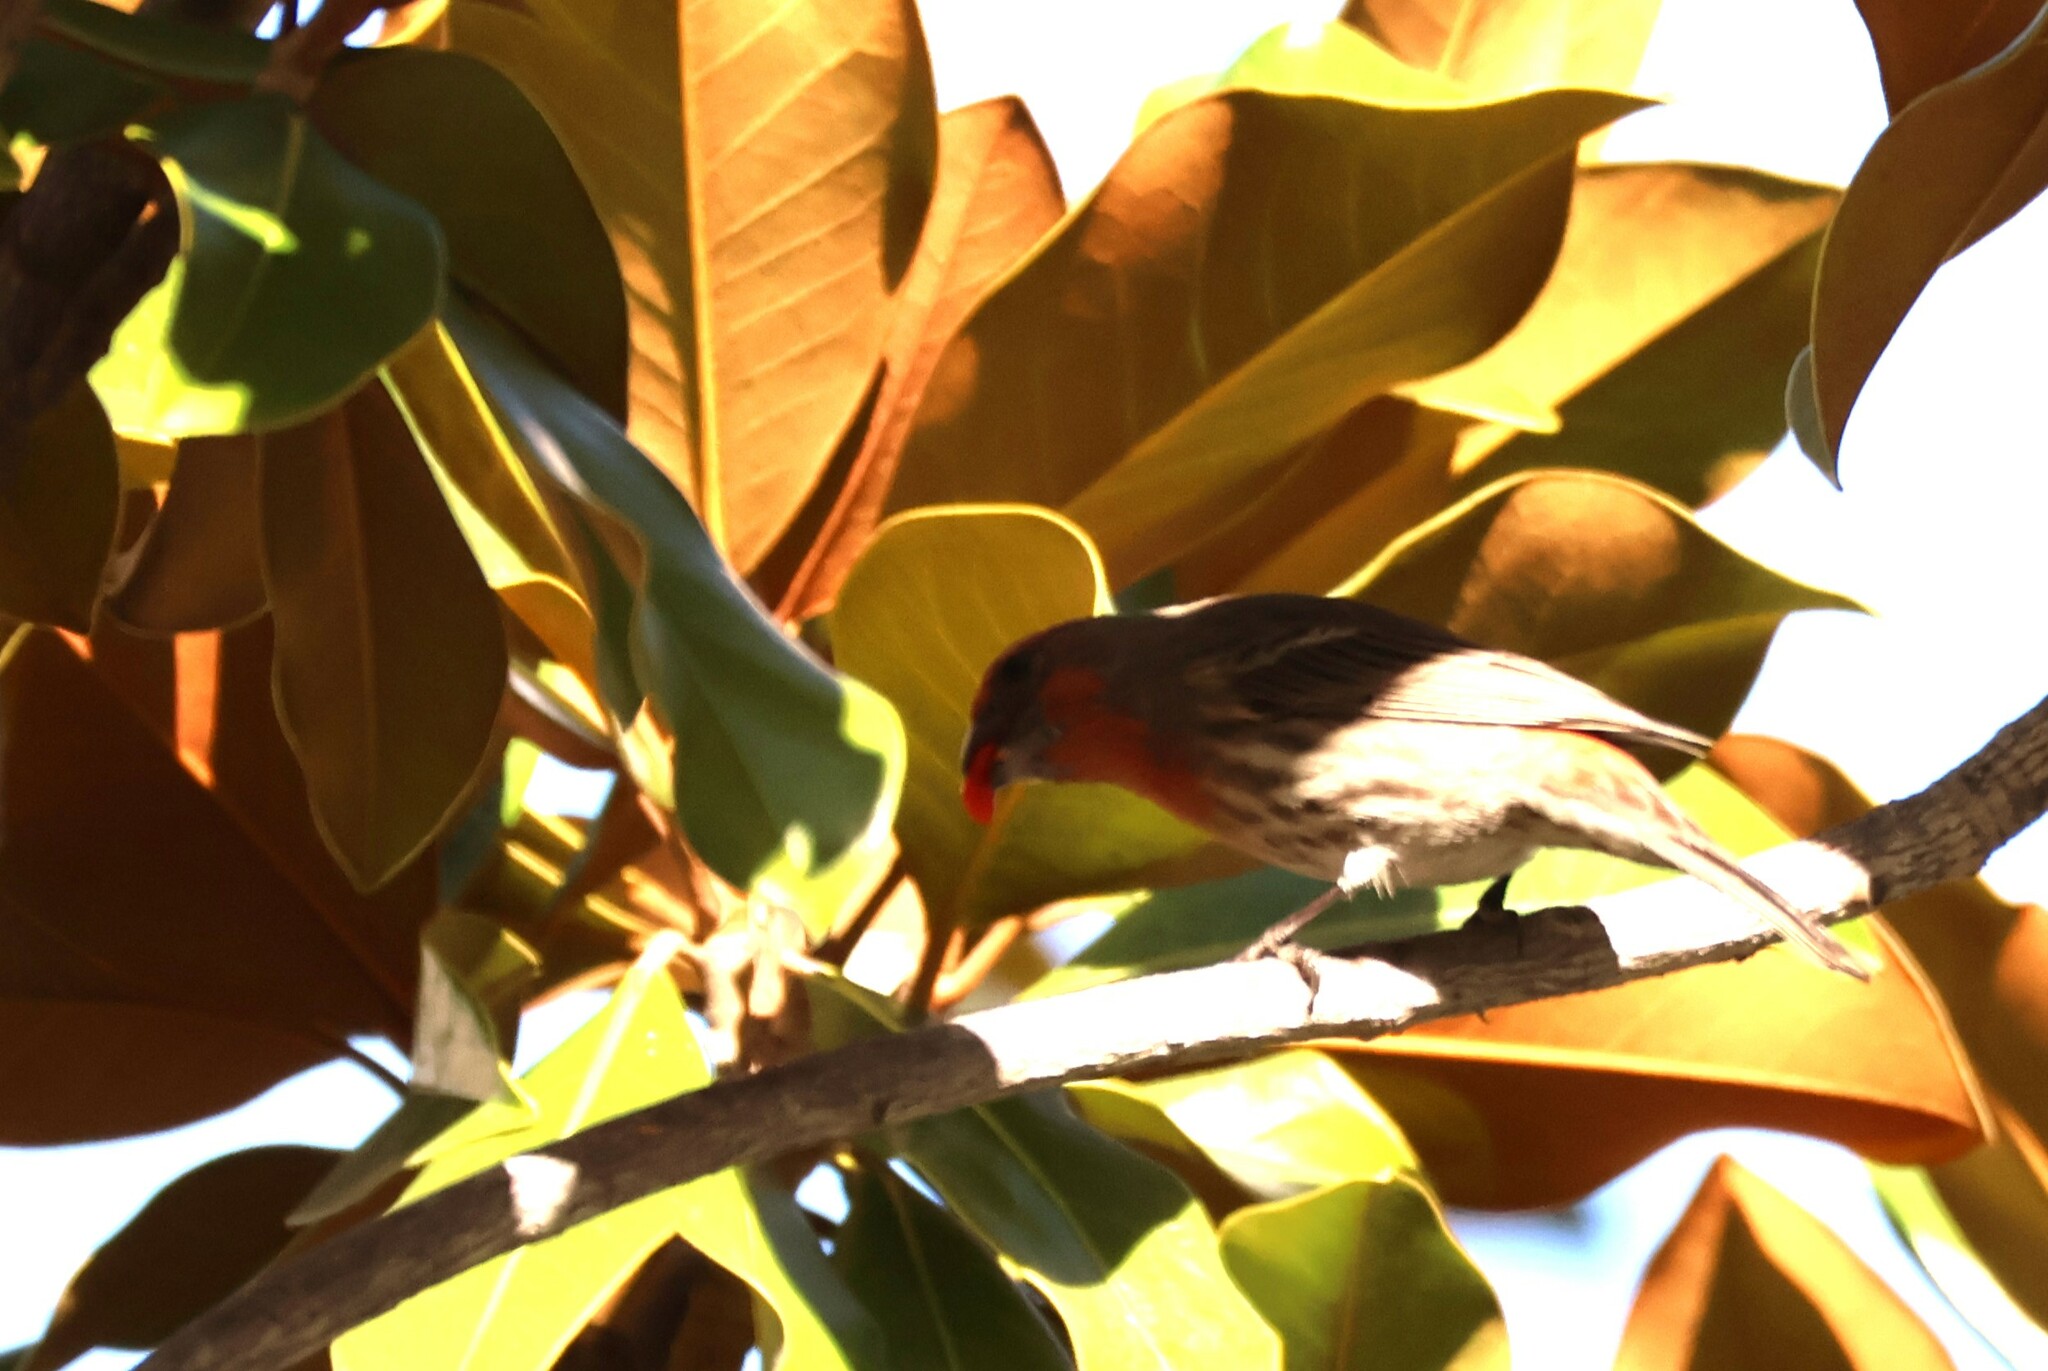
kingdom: Animalia
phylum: Chordata
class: Aves
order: Passeriformes
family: Fringillidae
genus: Haemorhous
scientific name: Haemorhous mexicanus
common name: House finch
